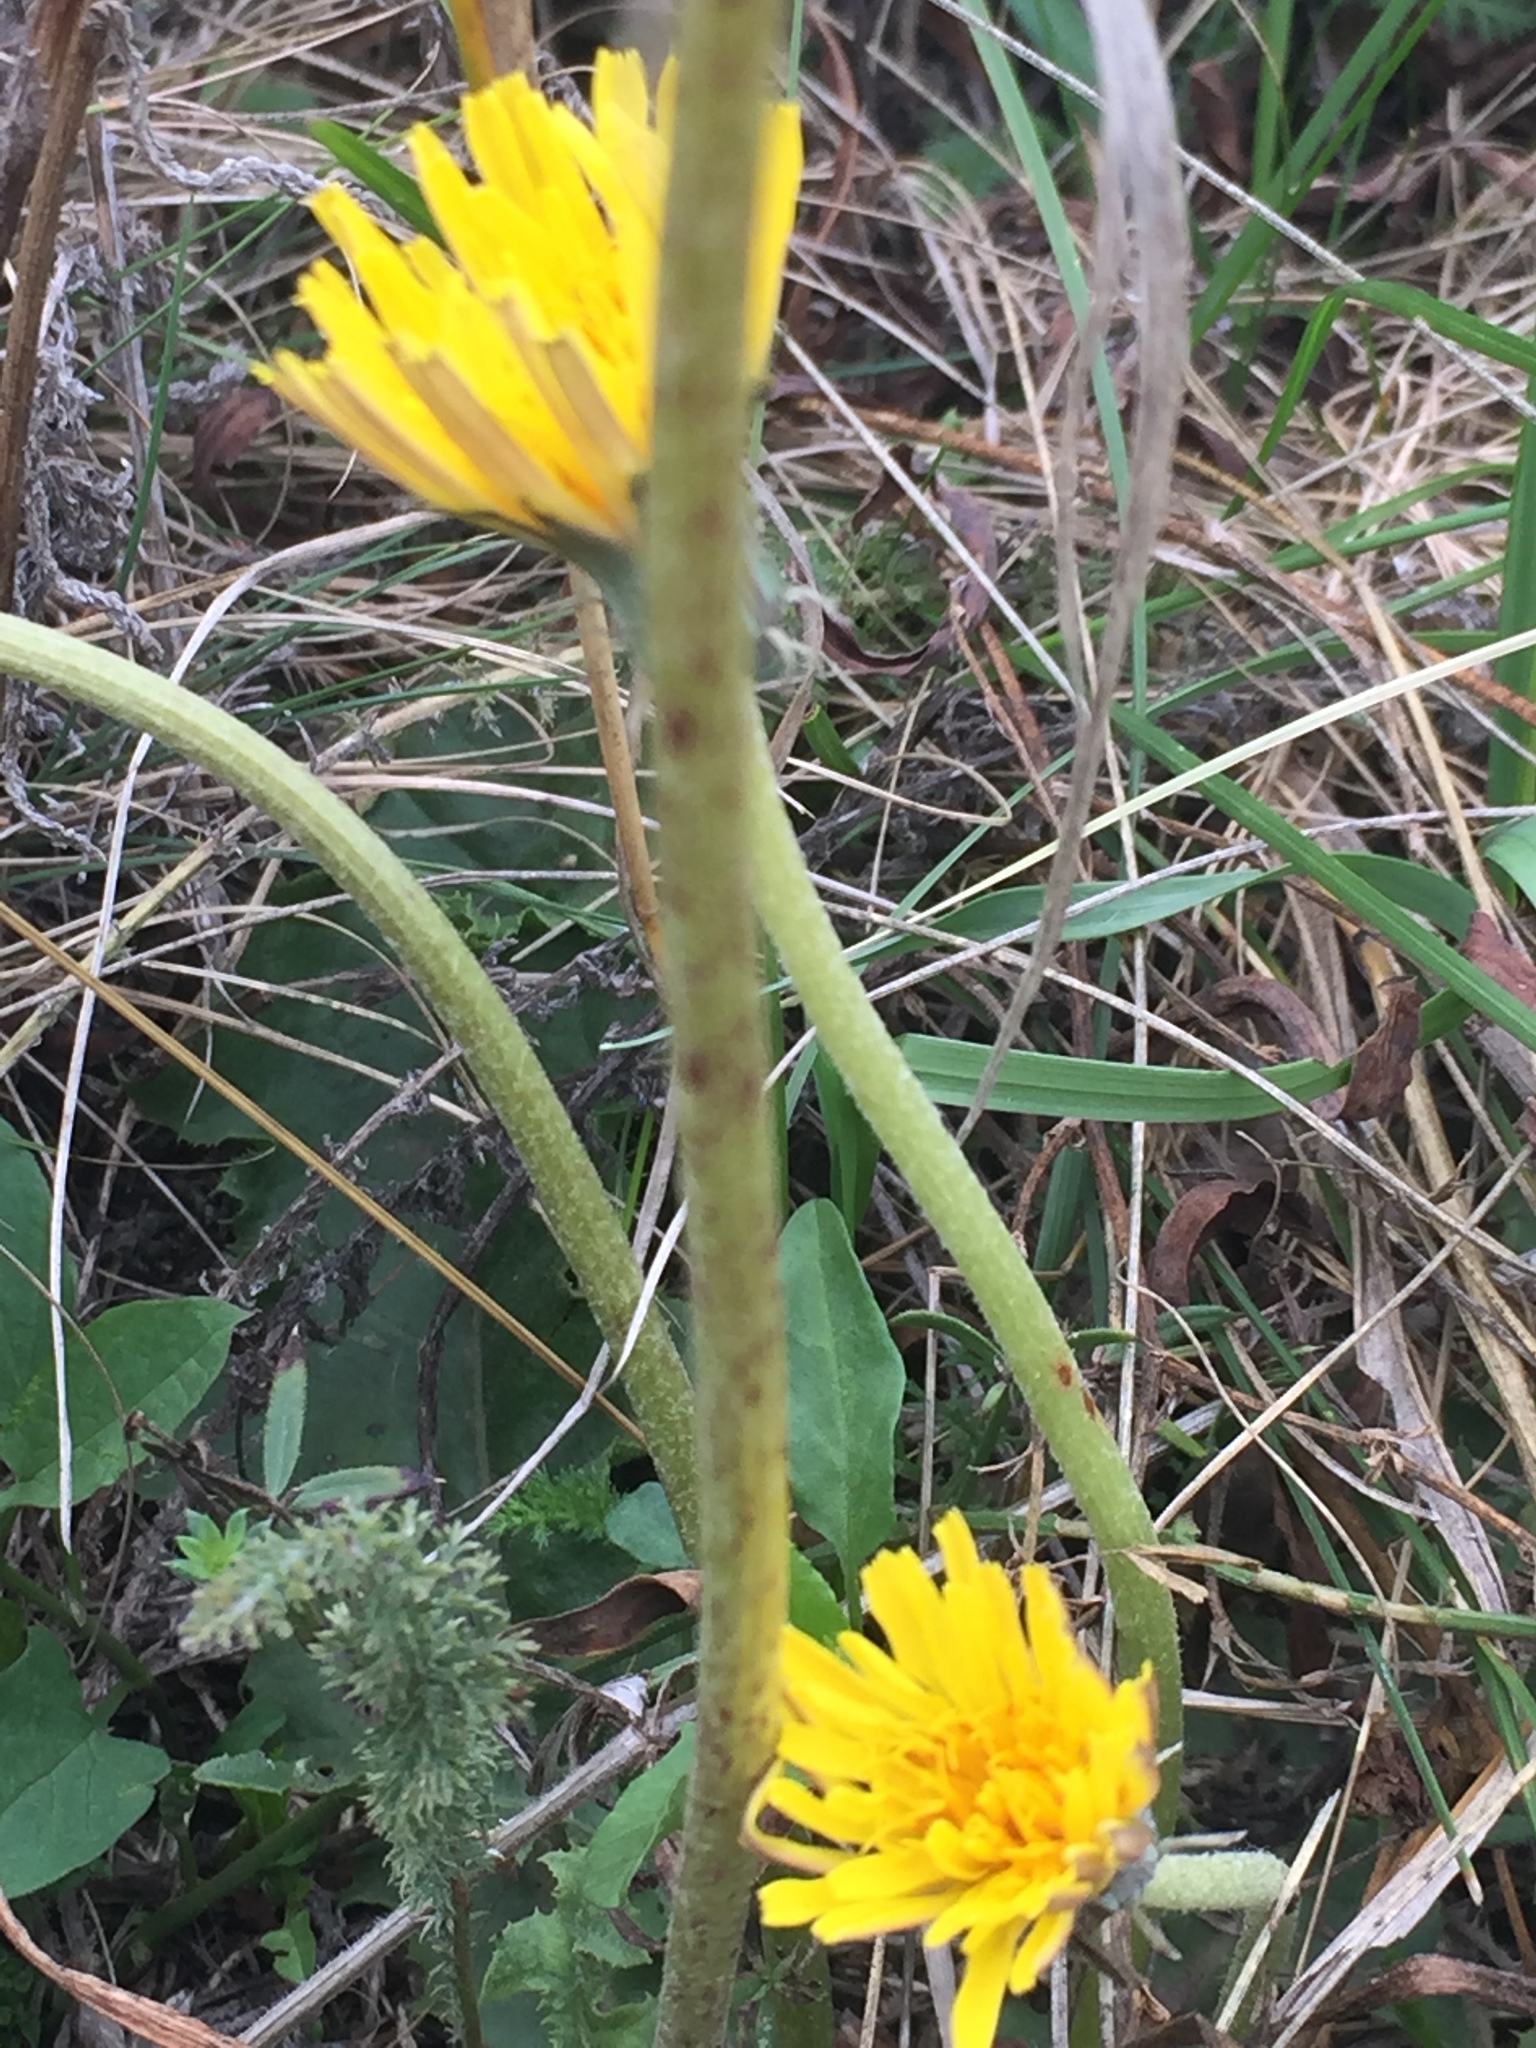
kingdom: Plantae
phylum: Tracheophyta
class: Magnoliopsida
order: Asterales
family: Asteraceae
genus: Taraxacum
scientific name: Taraxacum serotinum
